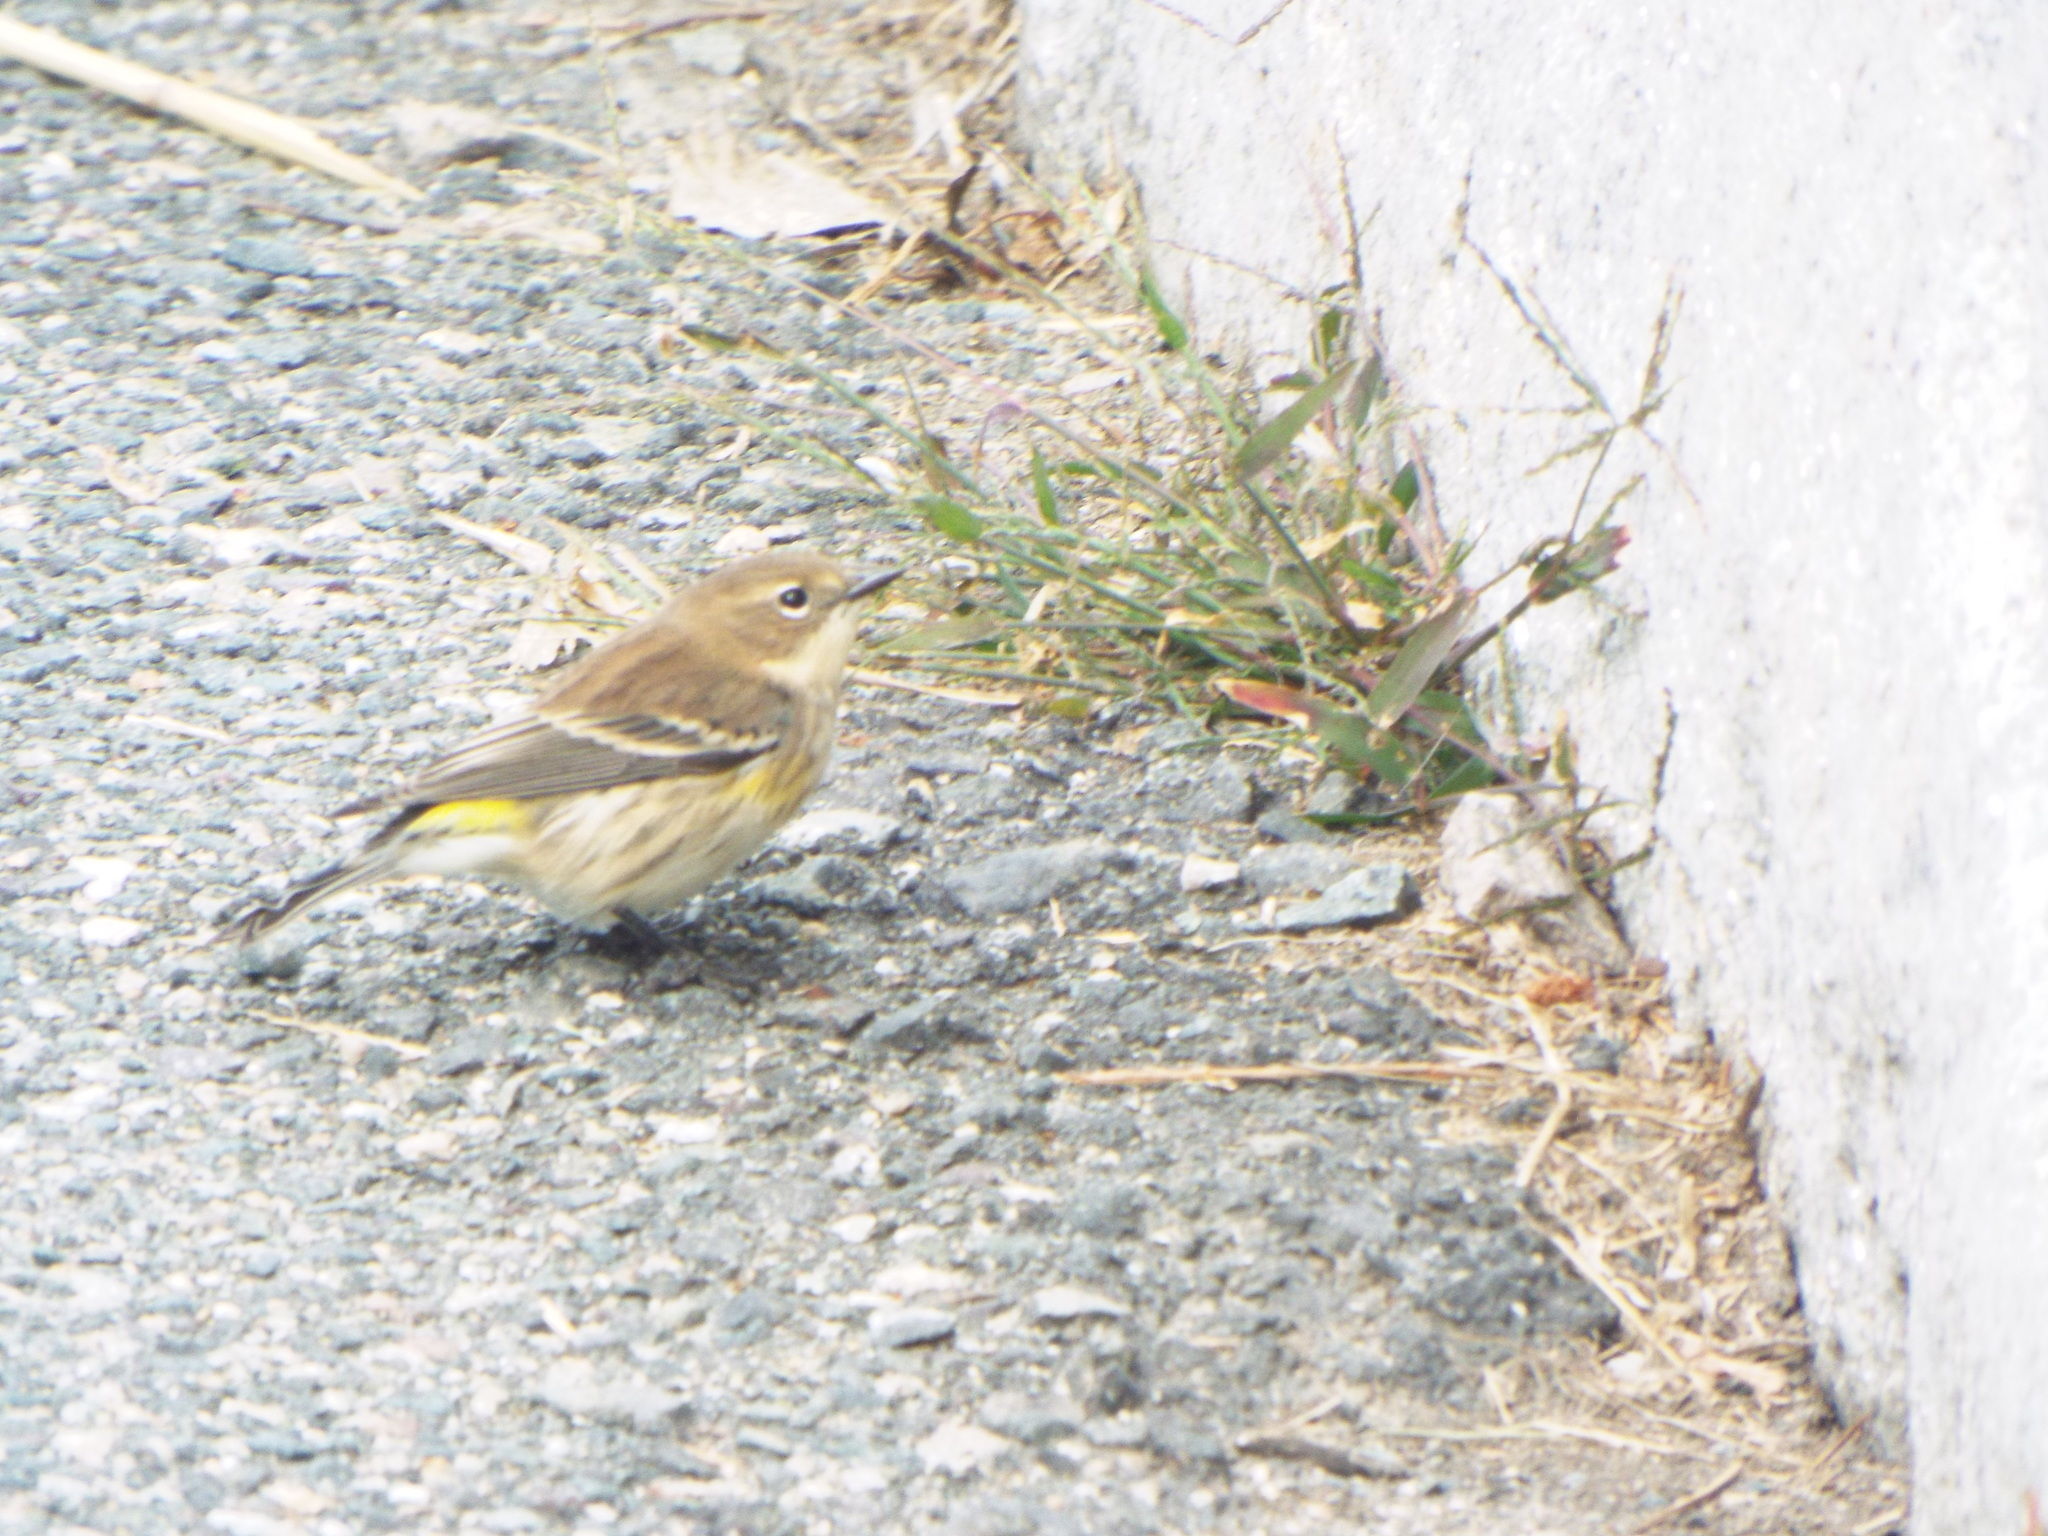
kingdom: Animalia
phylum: Chordata
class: Aves
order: Passeriformes
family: Parulidae
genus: Setophaga
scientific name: Setophaga coronata
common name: Myrtle warbler
